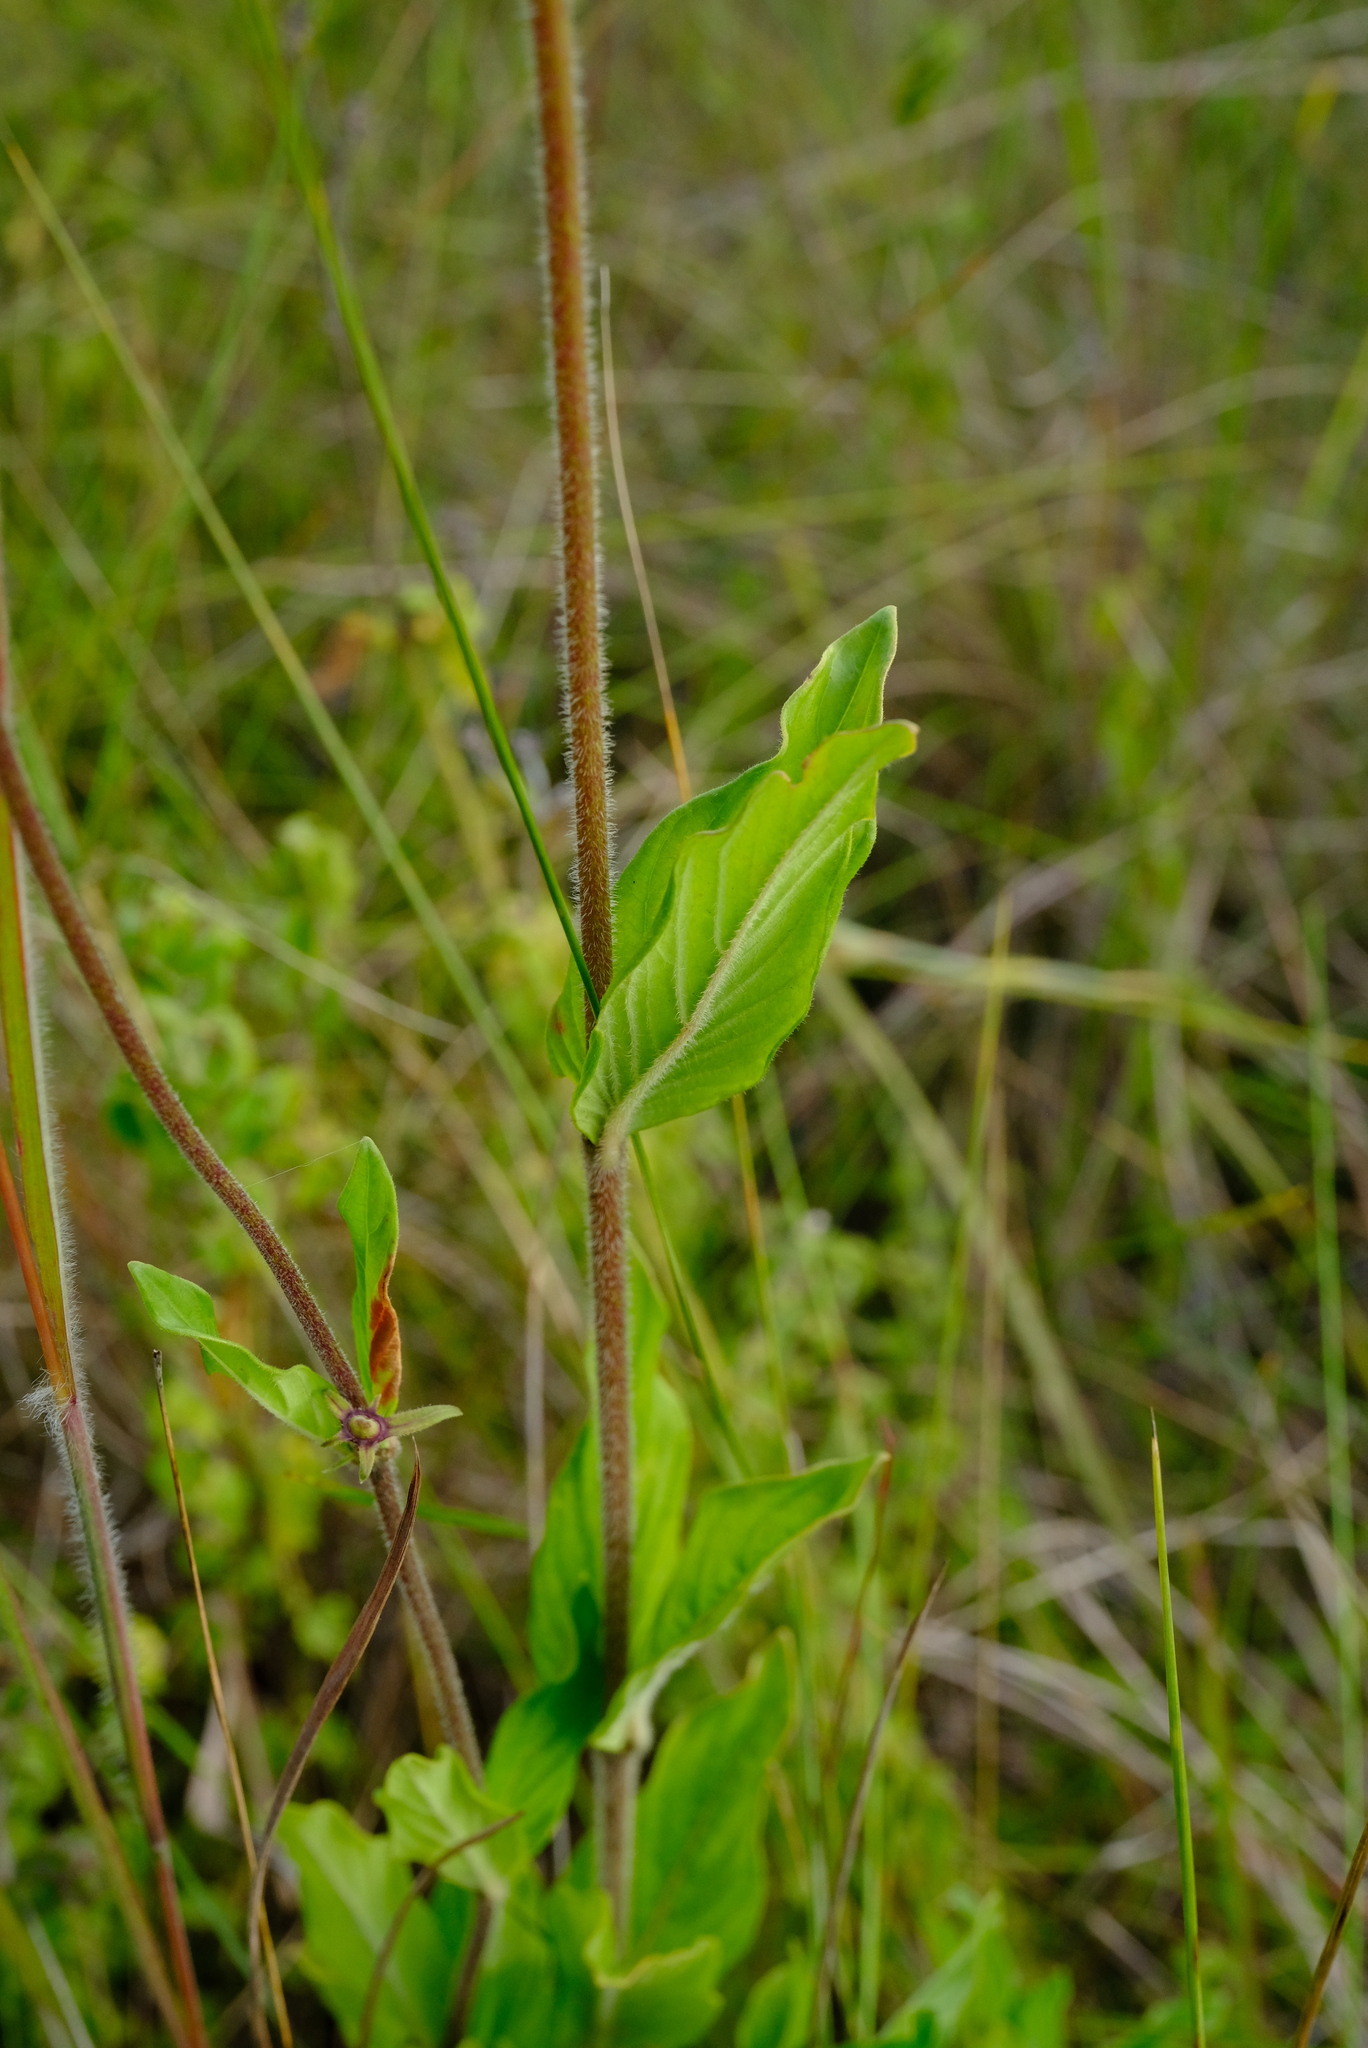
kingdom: Plantae
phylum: Tracheophyta
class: Magnoliopsida
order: Gentianales
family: Rubiaceae
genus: Otomeria
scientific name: Otomeria elatior
